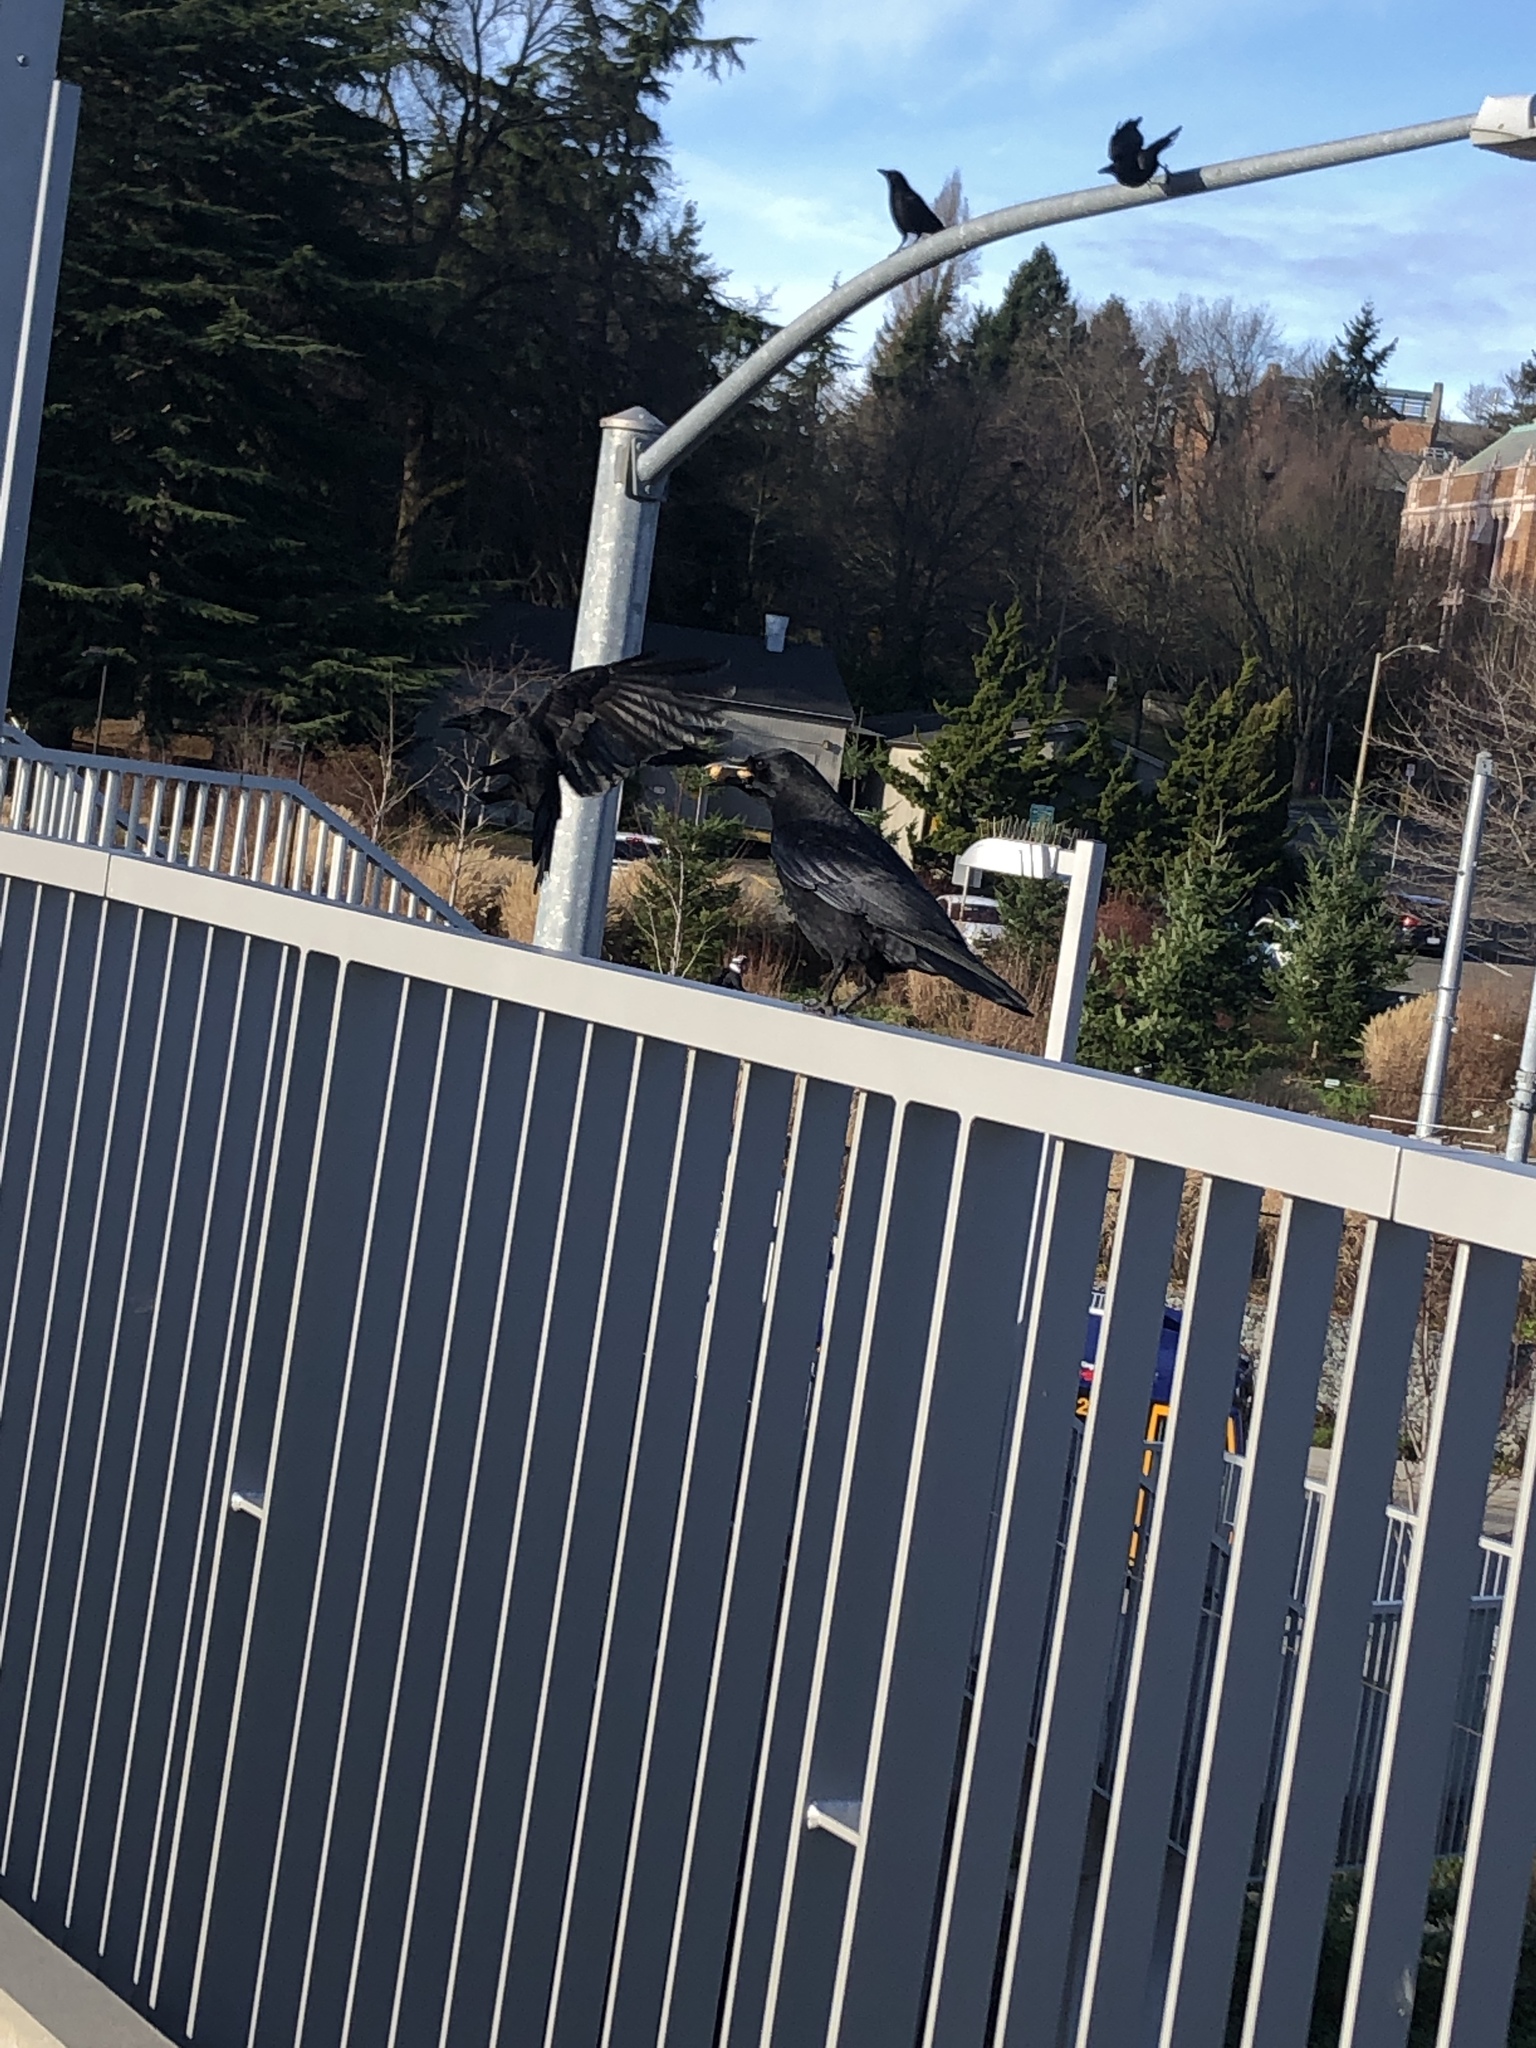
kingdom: Animalia
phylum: Chordata
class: Aves
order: Passeriformes
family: Corvidae
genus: Corvus
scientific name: Corvus brachyrhynchos
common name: American crow
